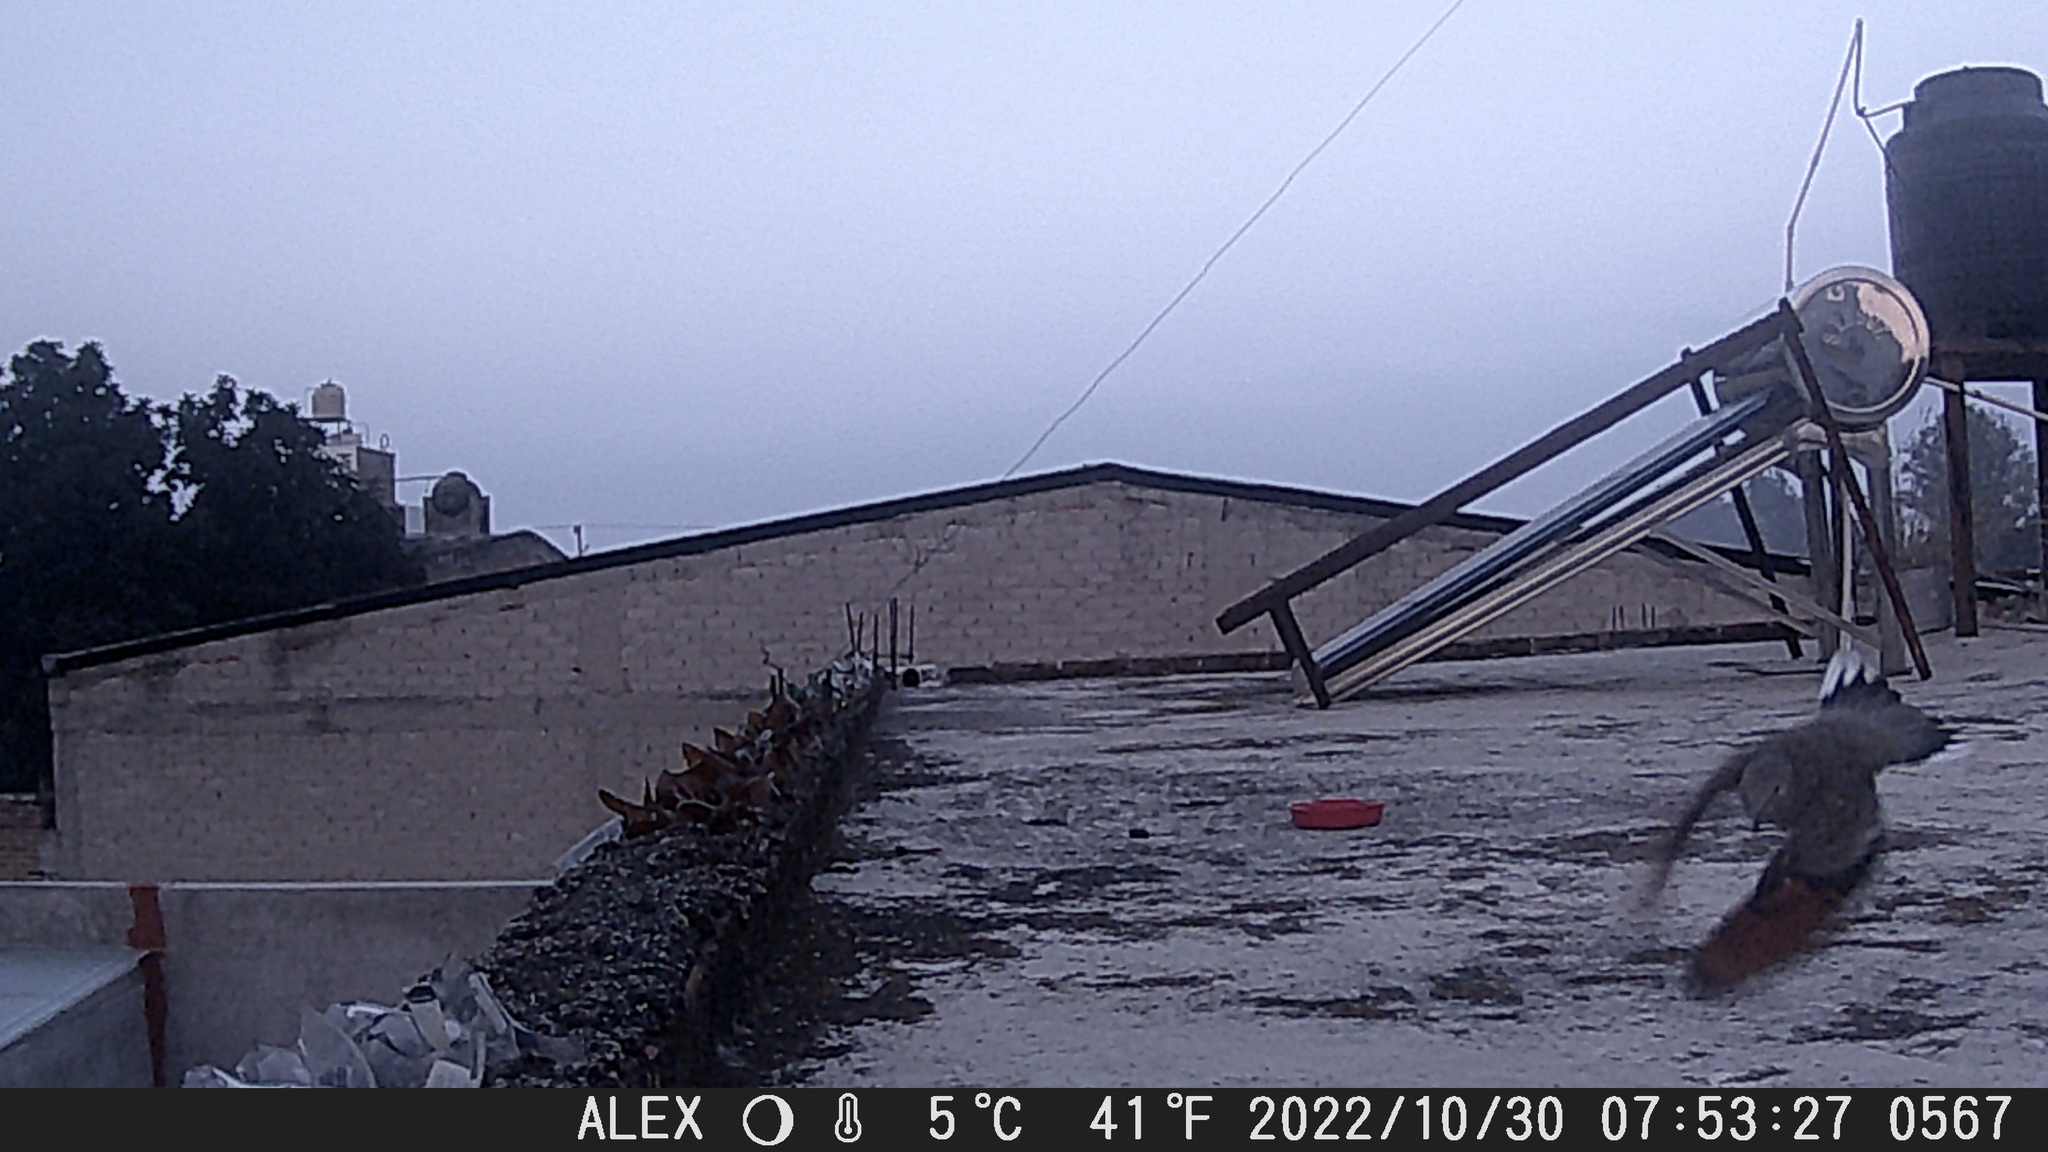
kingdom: Animalia
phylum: Chordata
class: Aves
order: Columbiformes
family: Columbidae
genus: Columbina
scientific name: Columbina inca
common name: Inca dove
